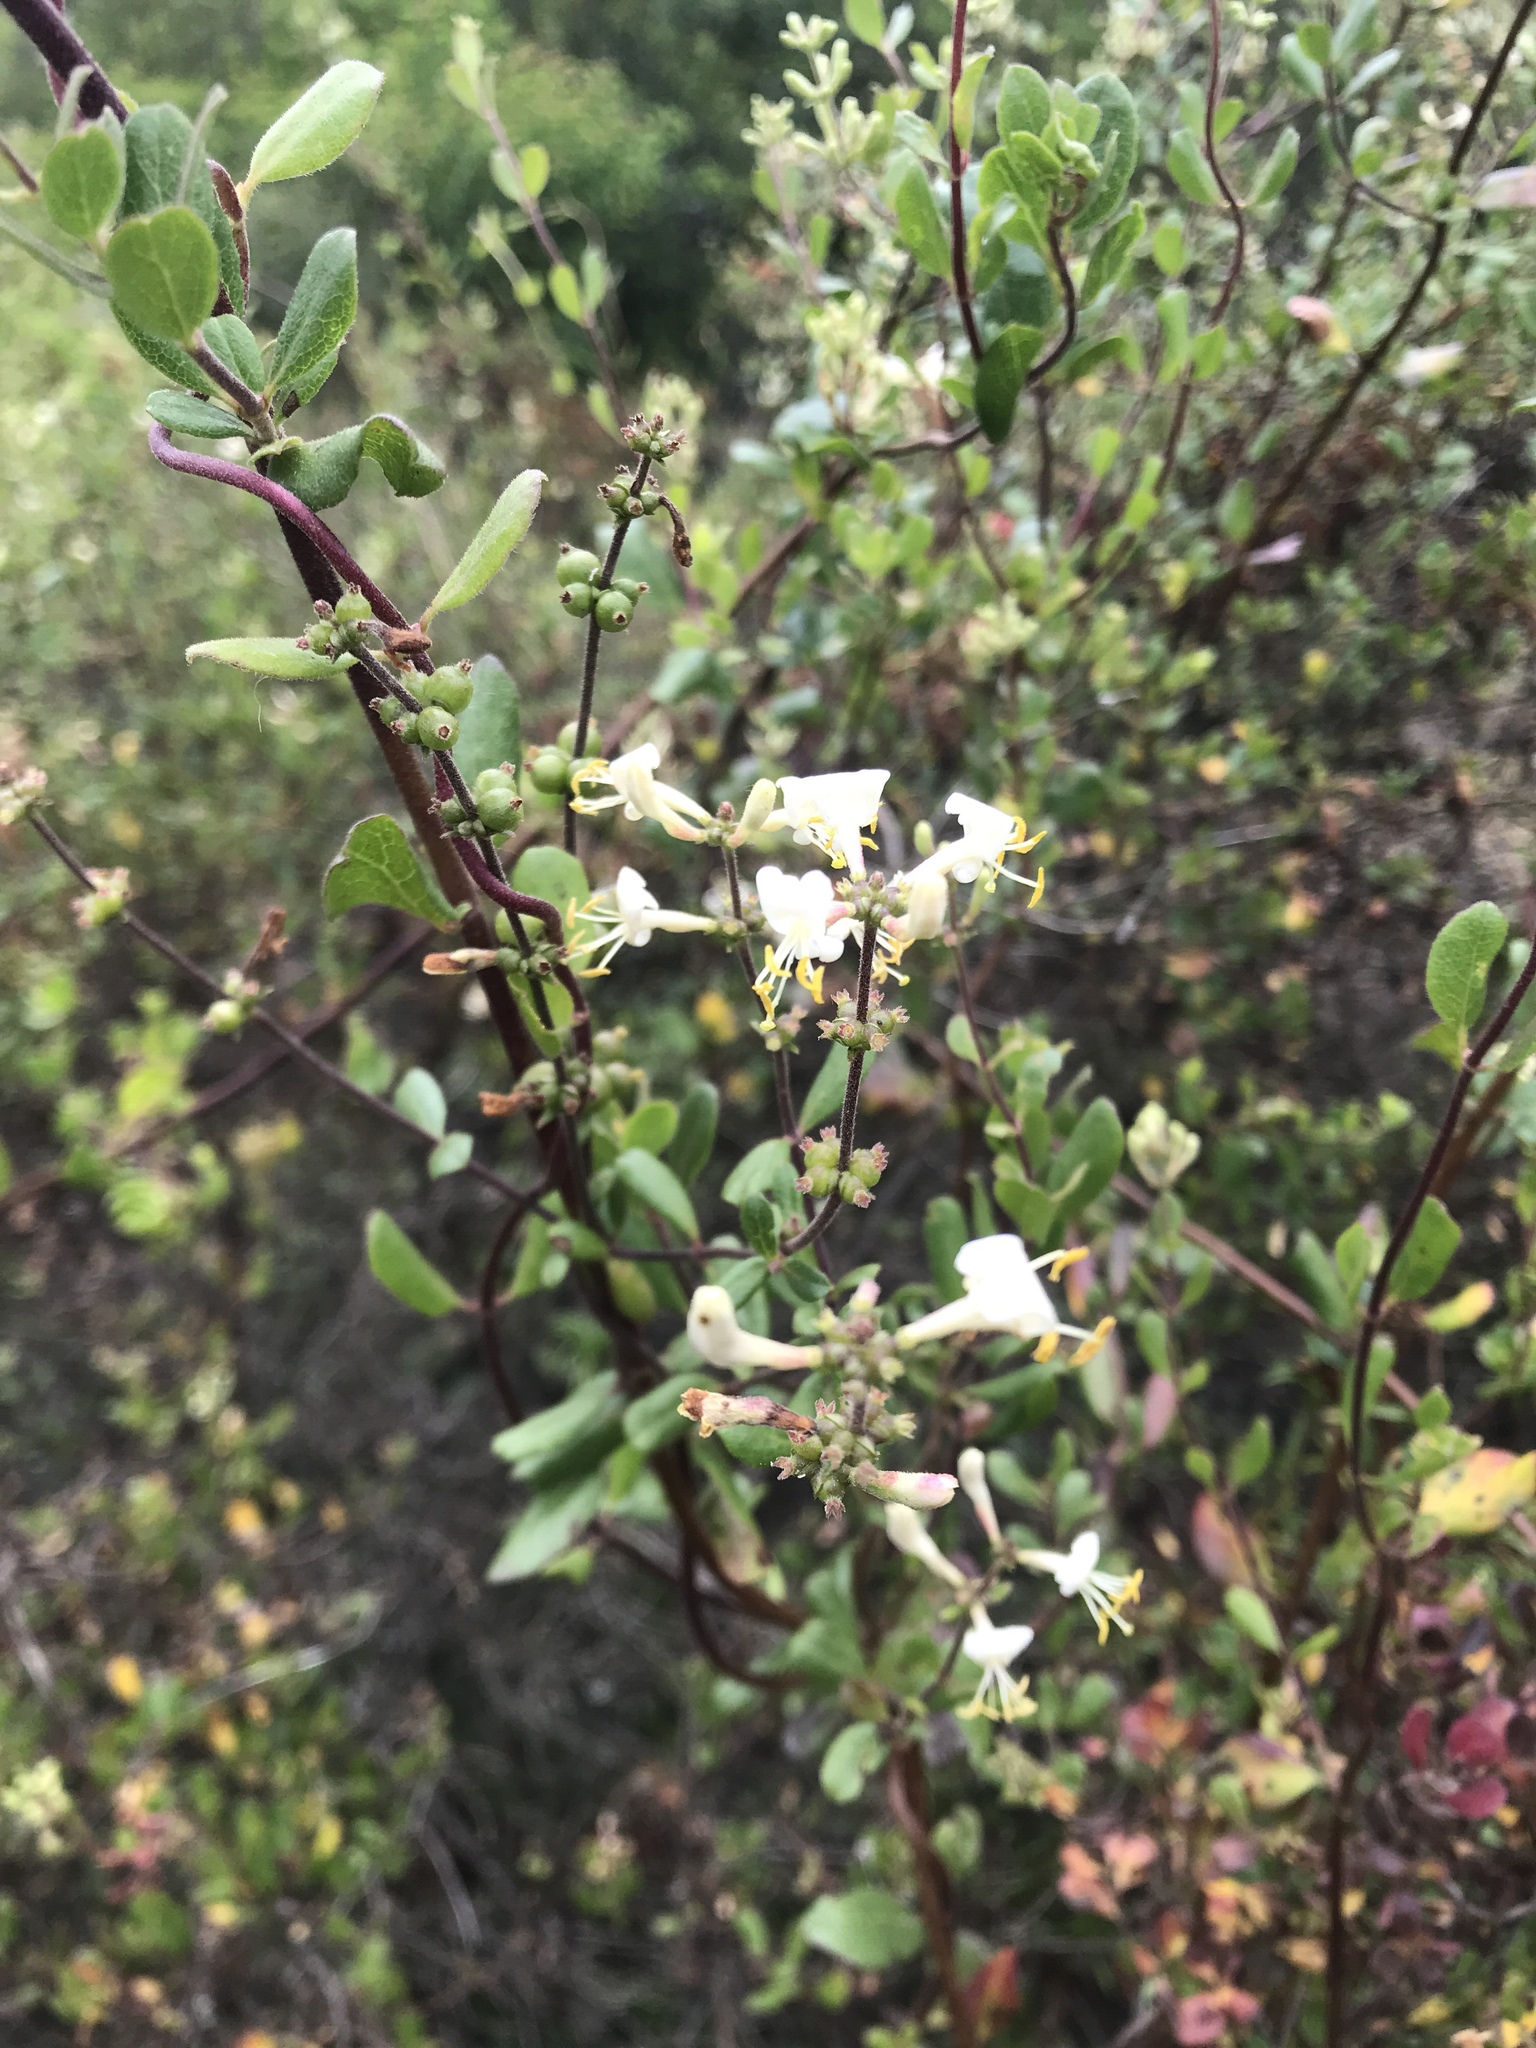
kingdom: Plantae
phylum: Tracheophyta
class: Magnoliopsida
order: Dipsacales
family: Caprifoliaceae
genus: Lonicera
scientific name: Lonicera subspicata
